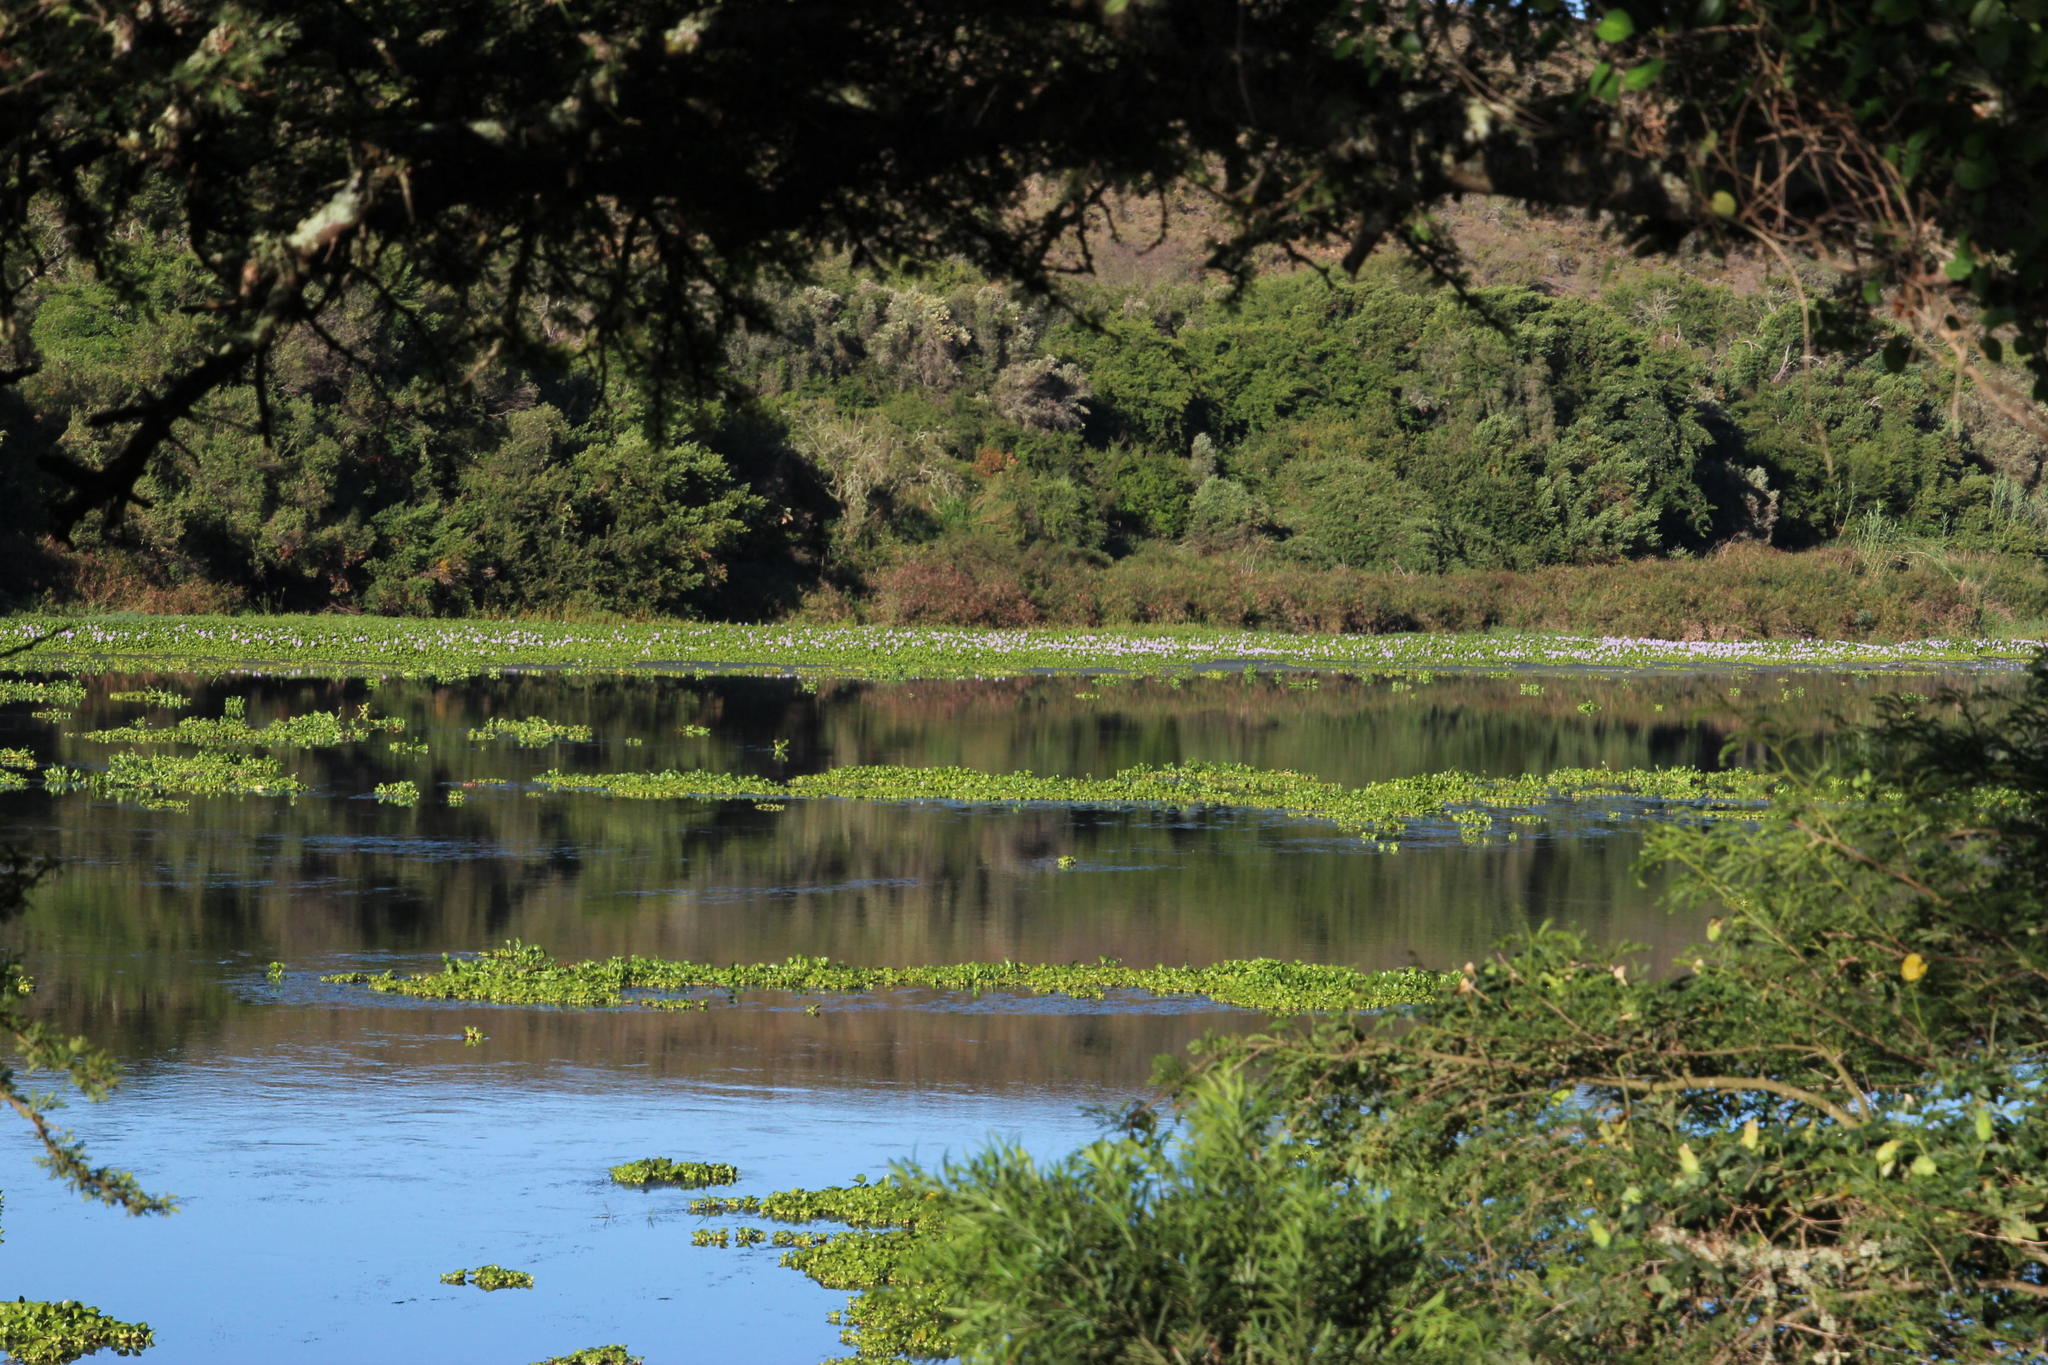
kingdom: Plantae
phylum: Tracheophyta
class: Liliopsida
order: Commelinales
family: Pontederiaceae
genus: Pontederia
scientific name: Pontederia crassipes
